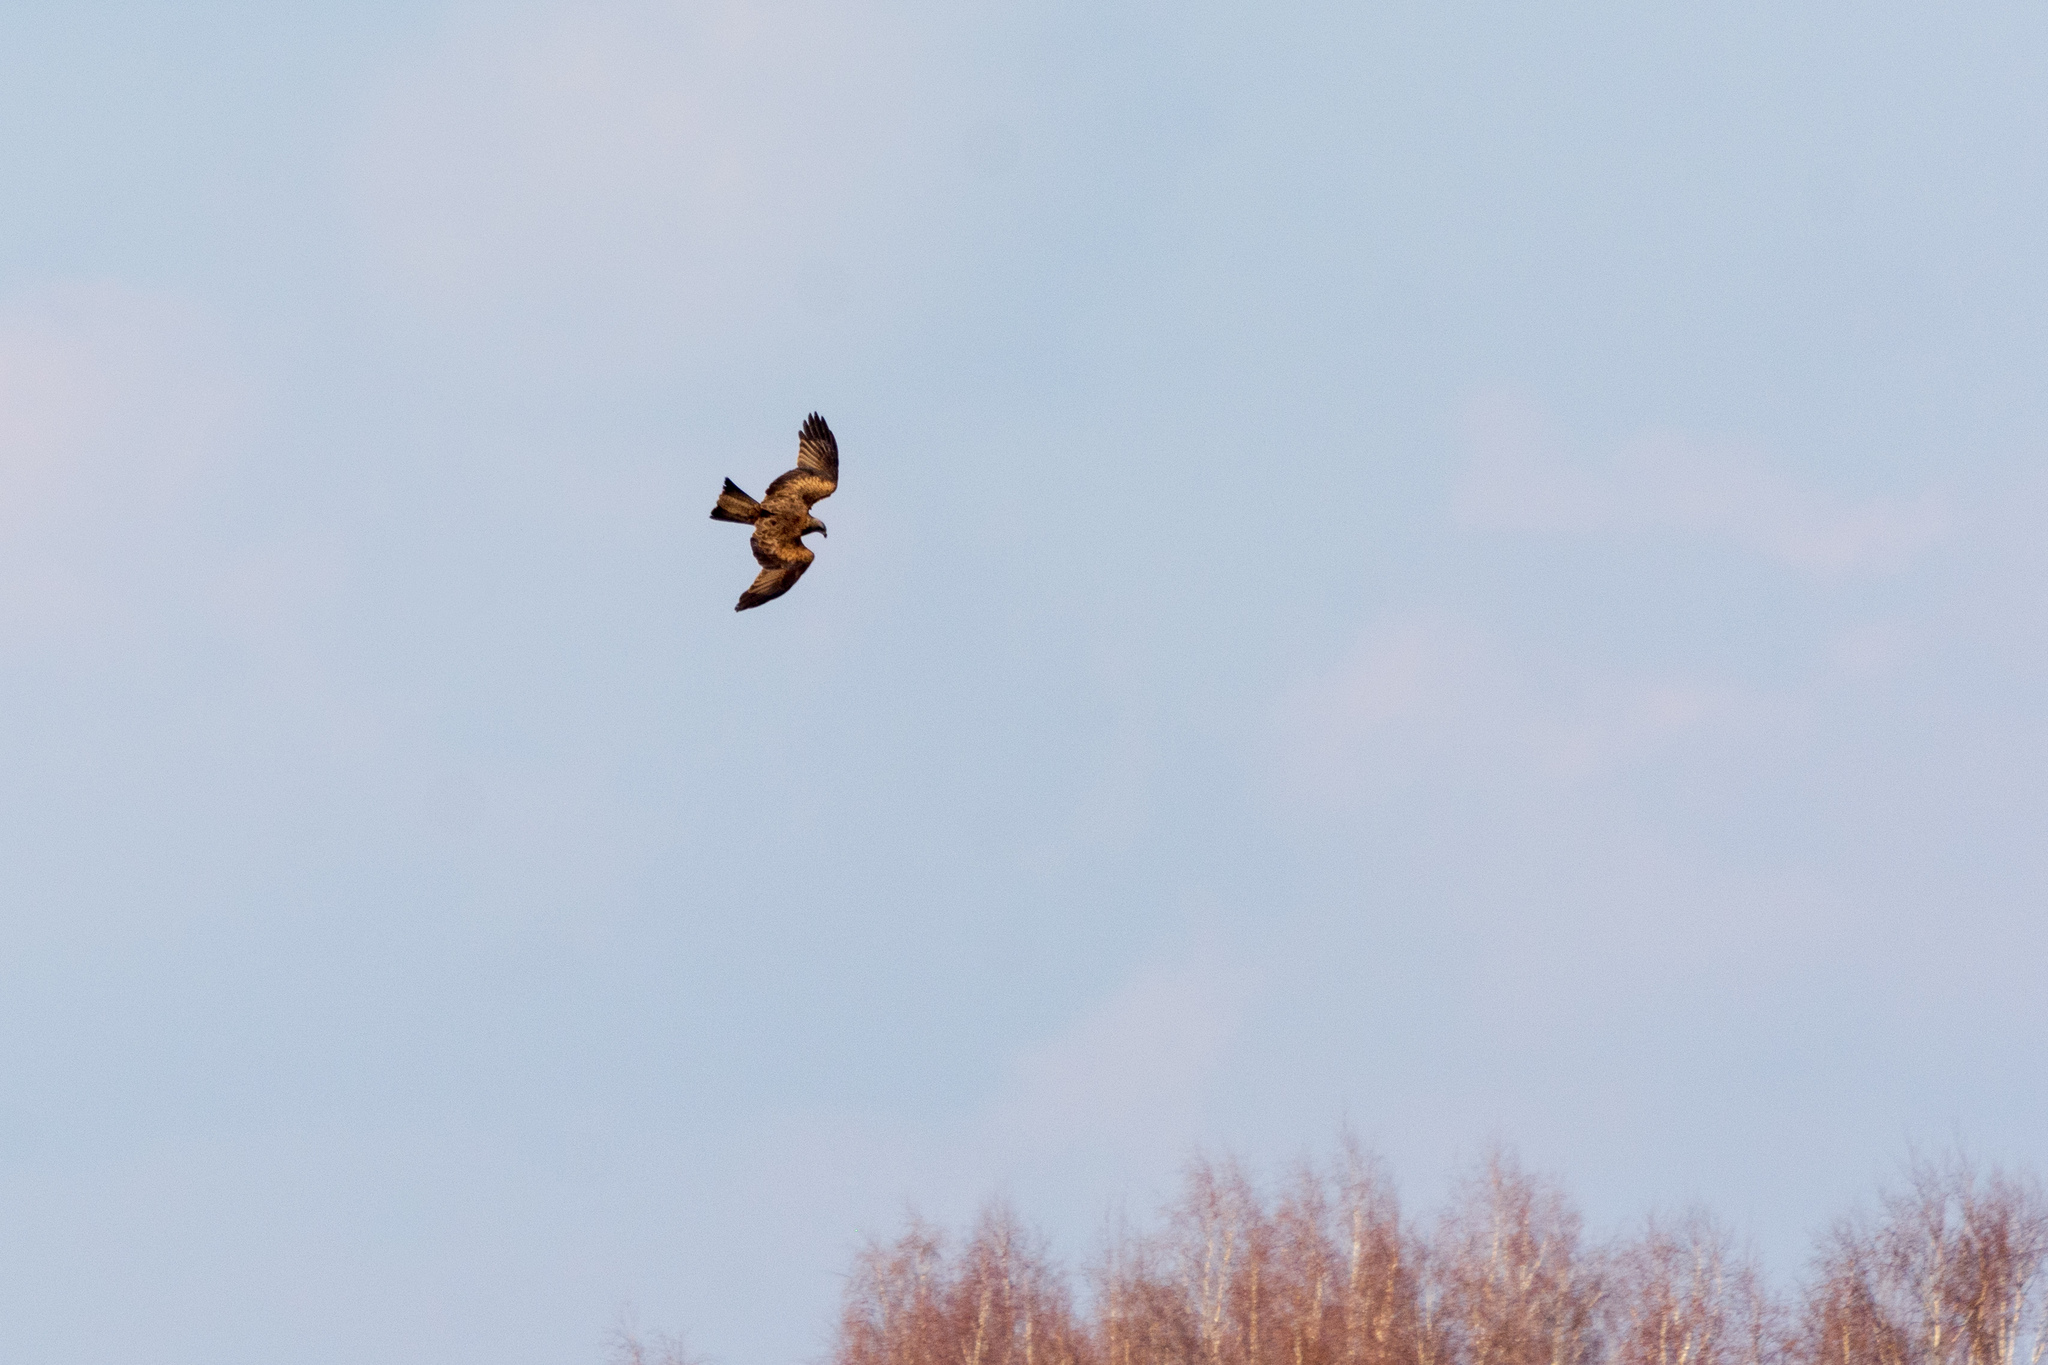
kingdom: Animalia
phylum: Chordata
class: Aves
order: Accipitriformes
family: Accipitridae
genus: Milvus
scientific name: Milvus migrans
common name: Black kite
